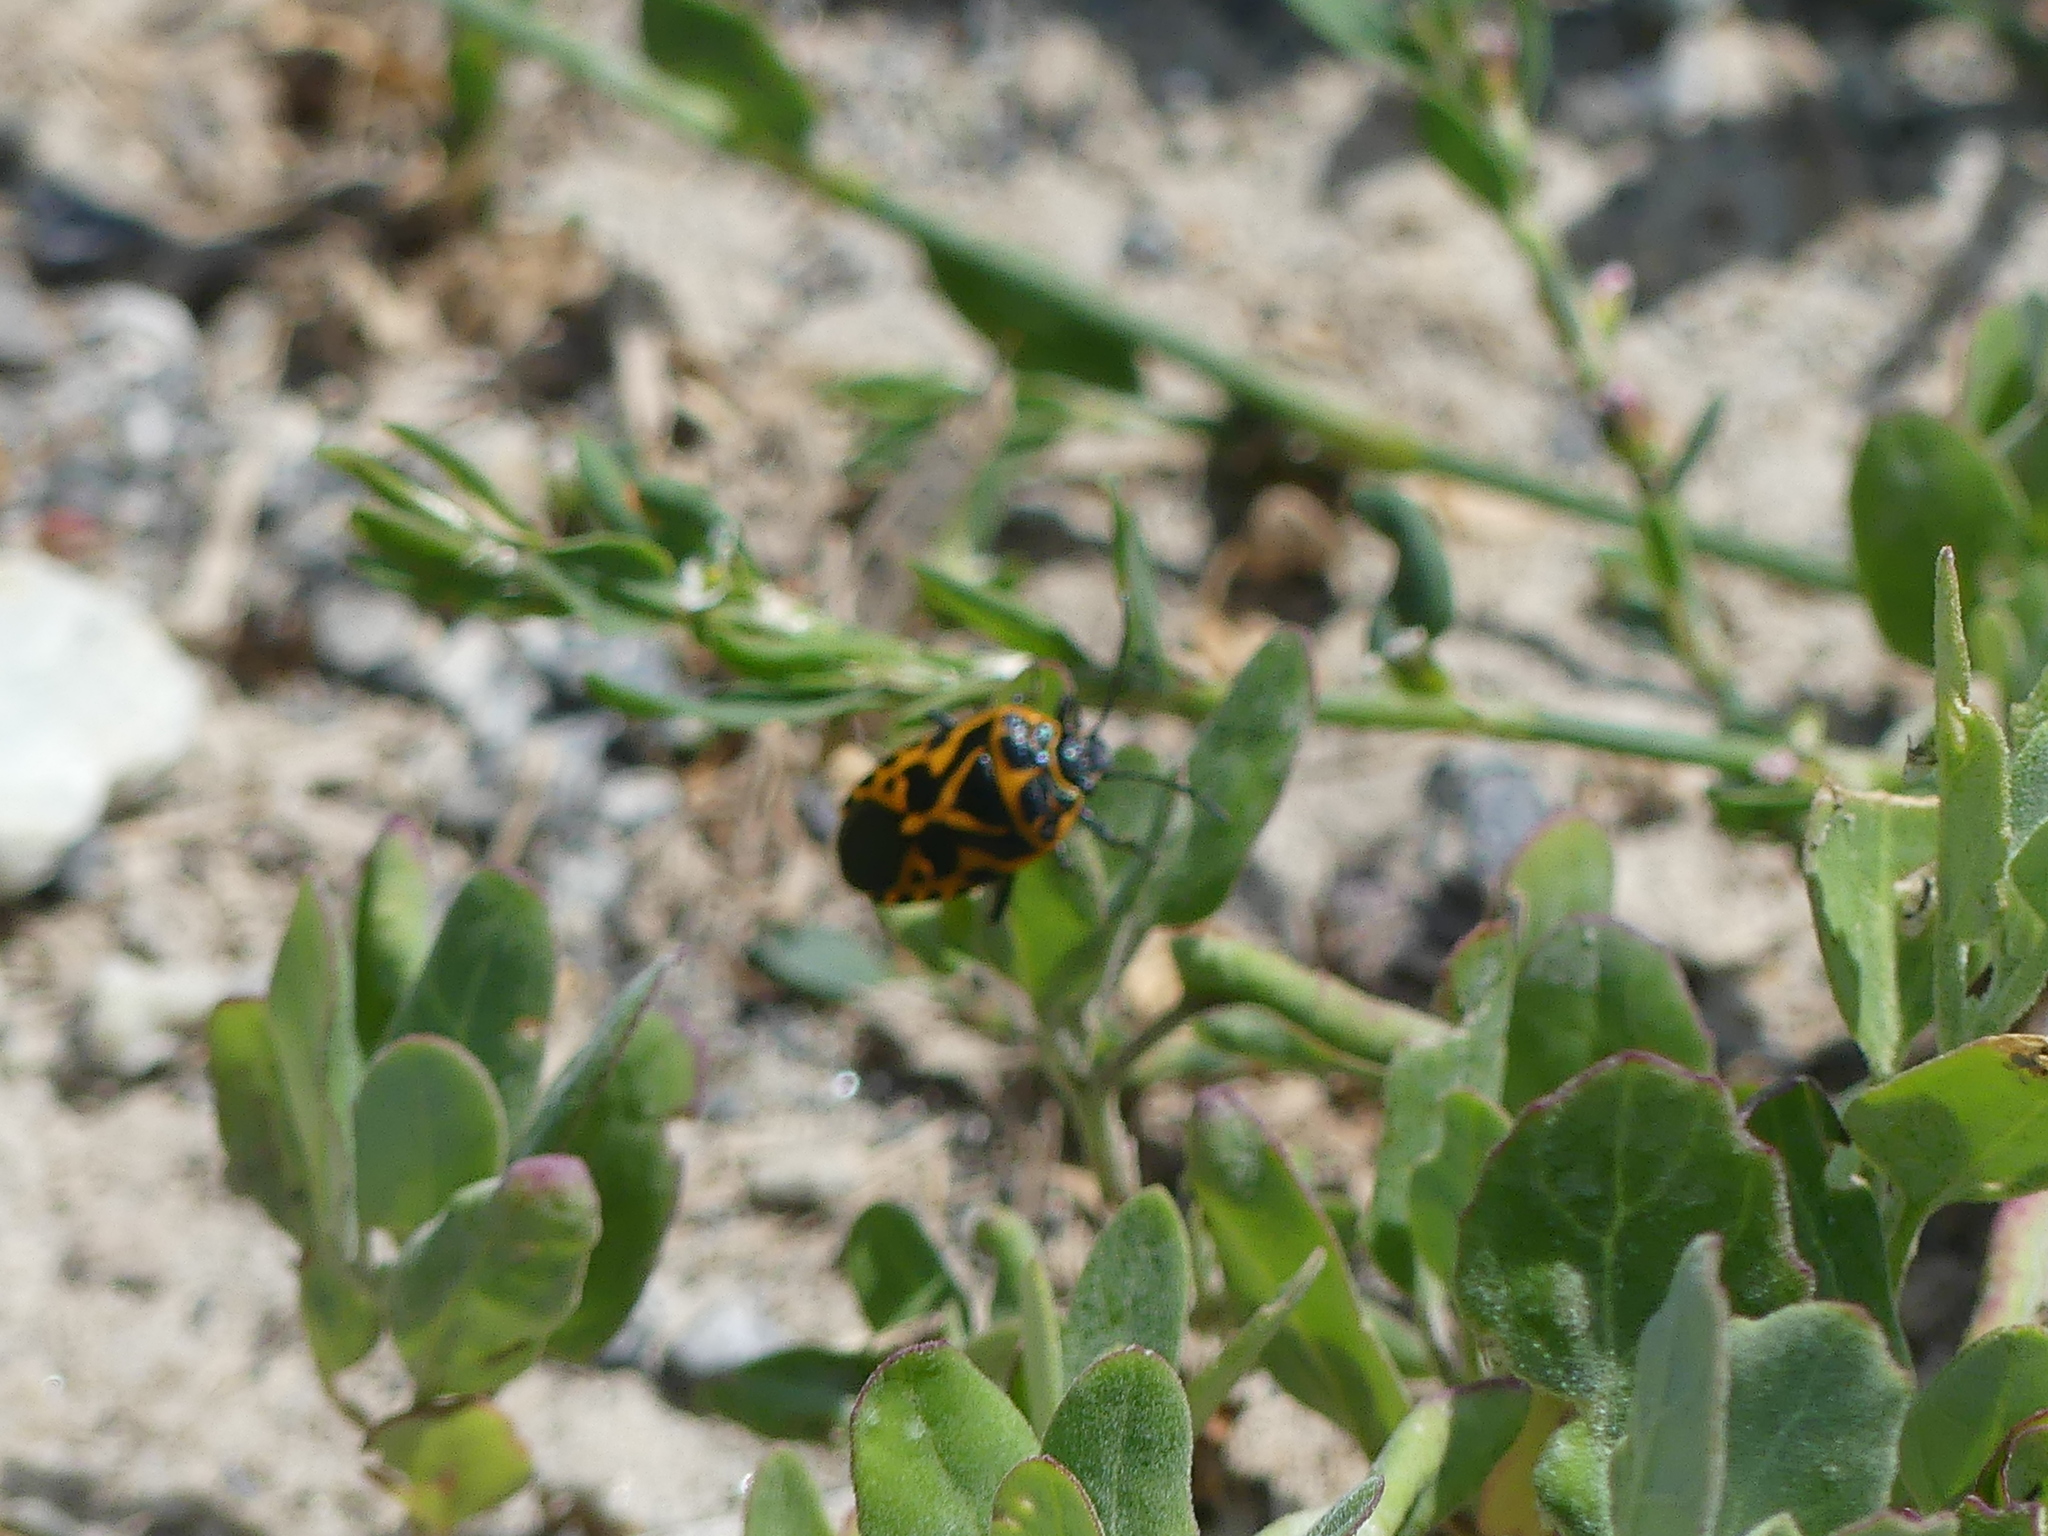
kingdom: Animalia
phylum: Arthropoda
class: Insecta
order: Hemiptera
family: Pentatomidae
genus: Eurydema
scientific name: Eurydema ventralis
